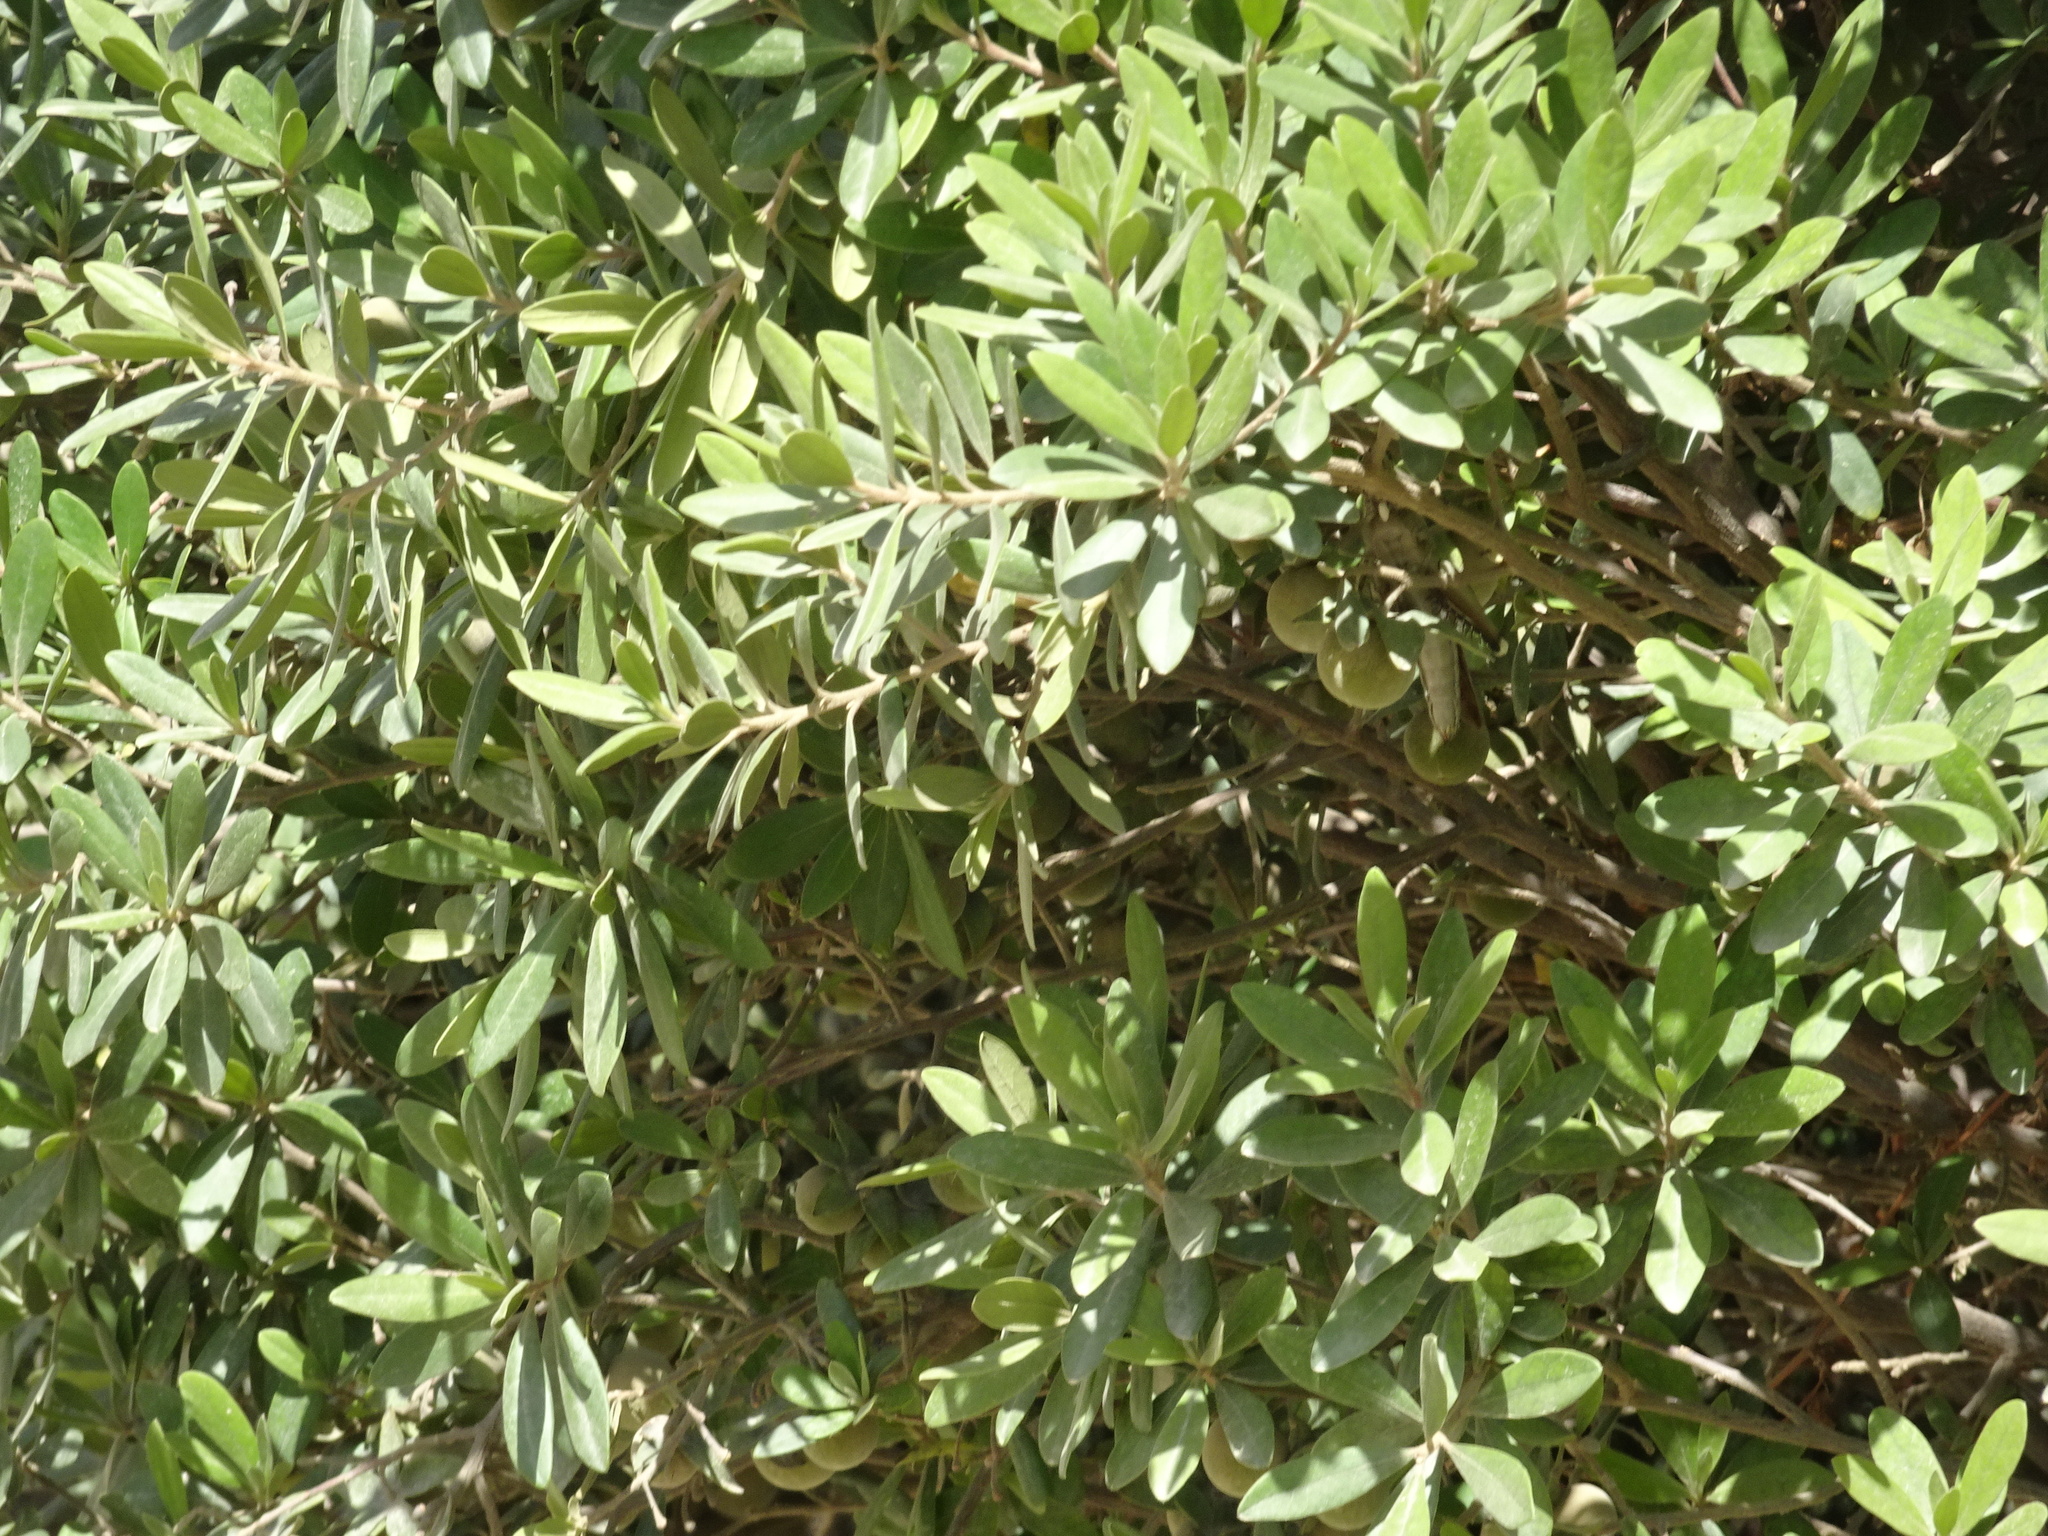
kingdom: Plantae
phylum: Tracheophyta
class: Magnoliopsida
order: Ericales
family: Ebenaceae
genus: Diospyros
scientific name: Diospyros dichrophylla
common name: Common star-apple
